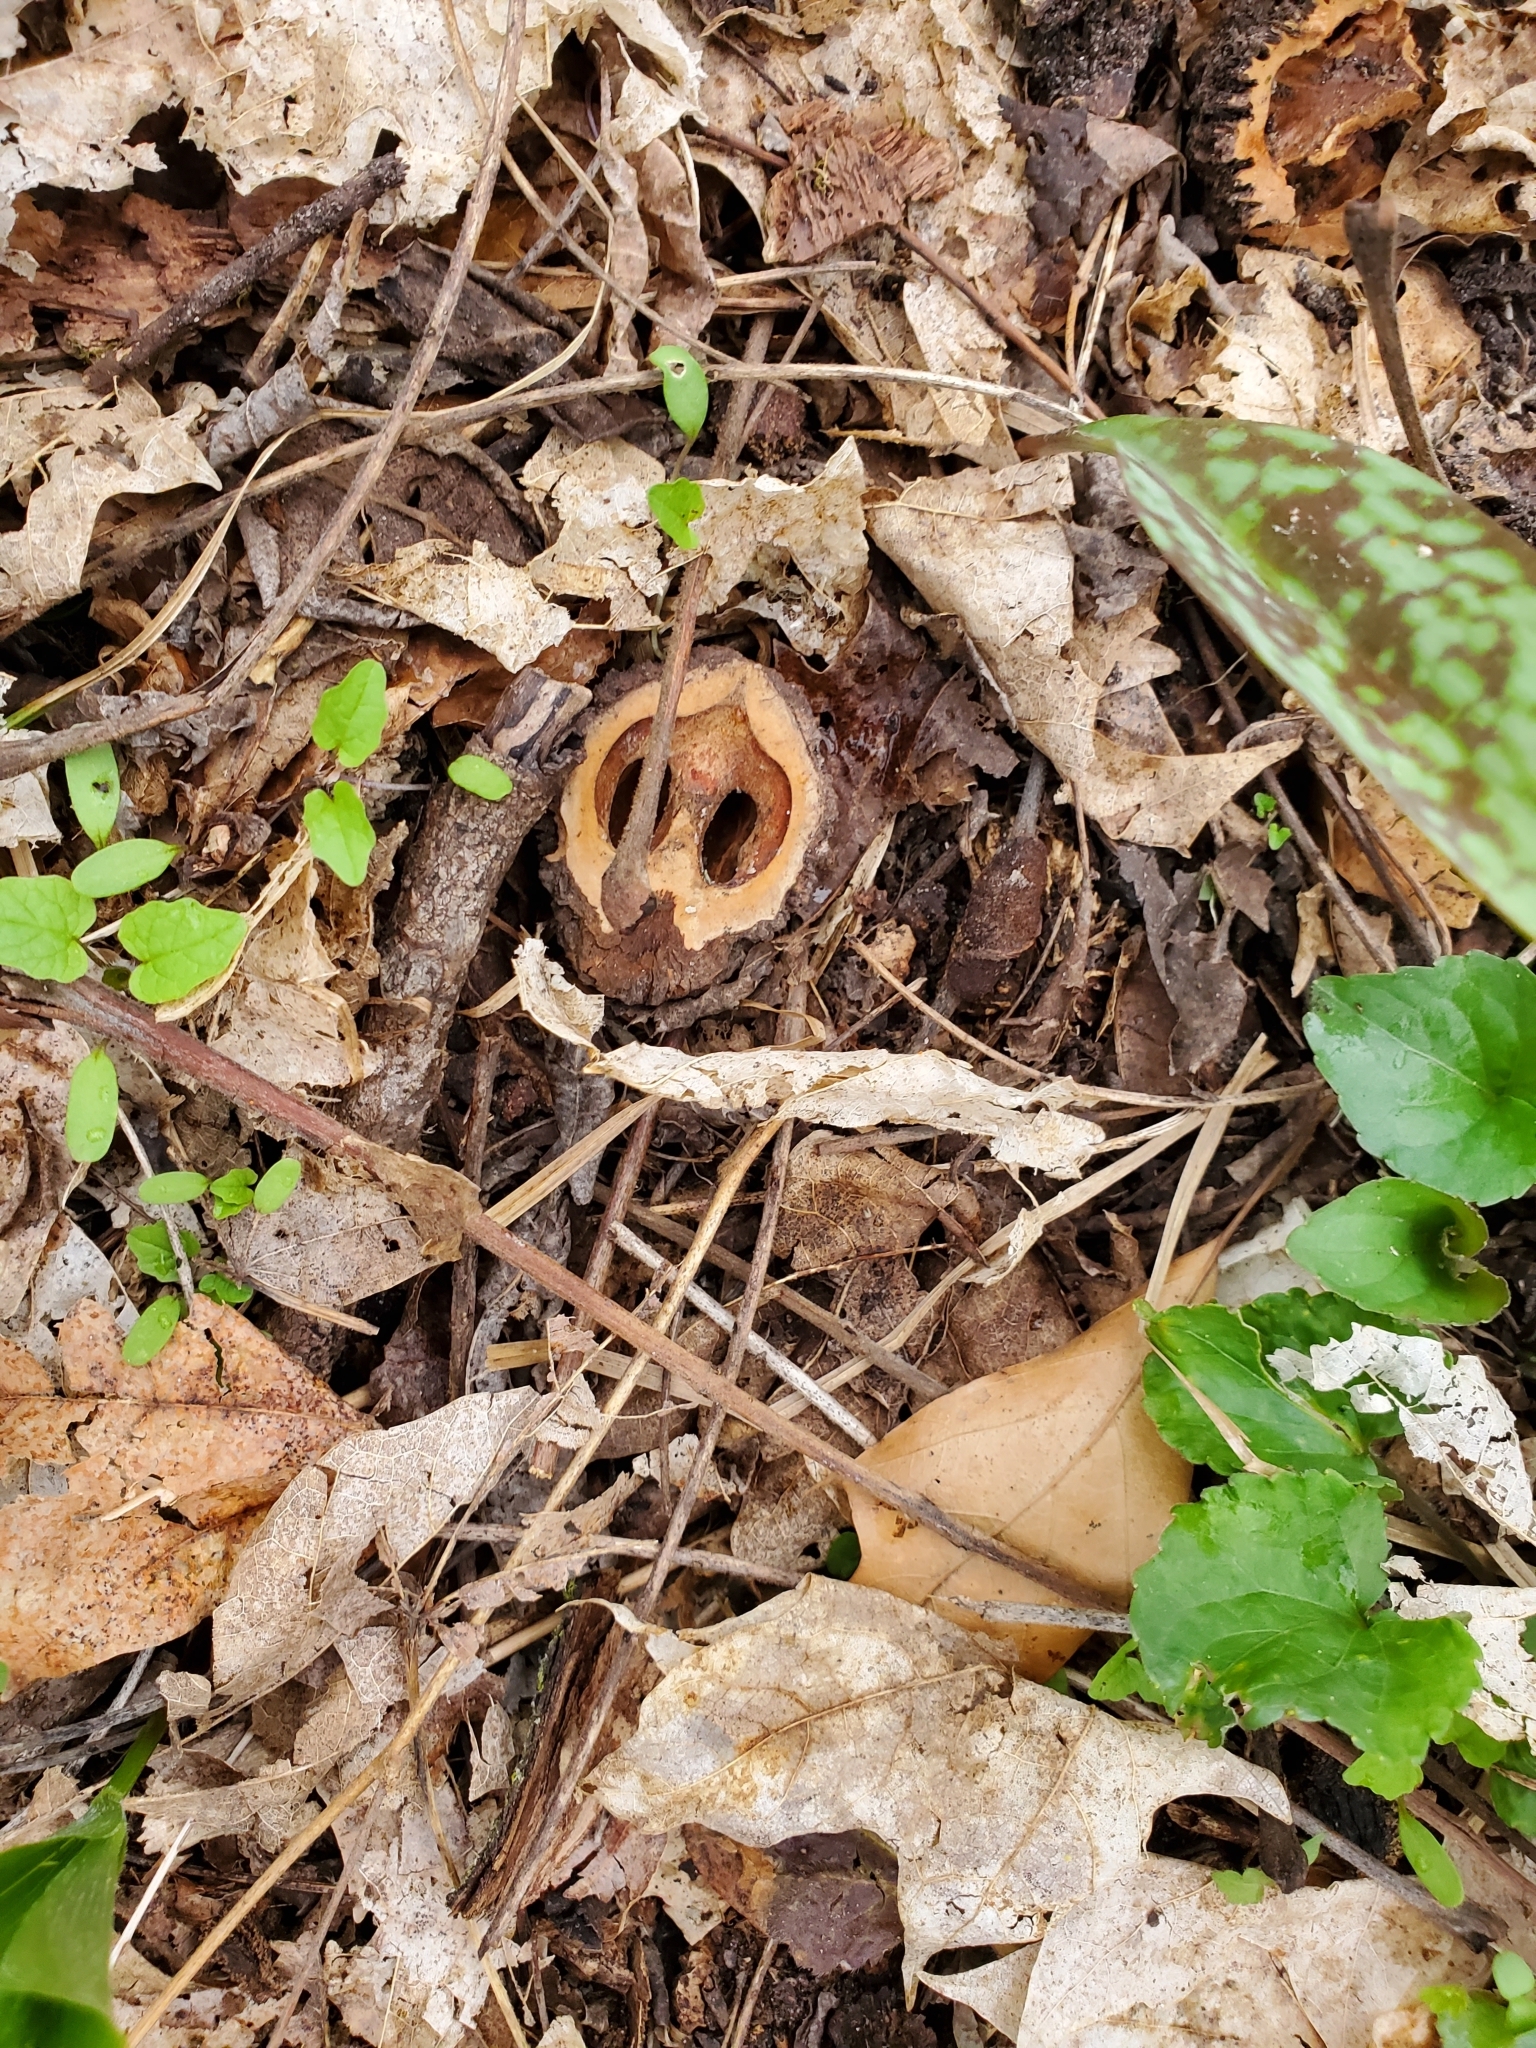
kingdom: Plantae
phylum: Tracheophyta
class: Magnoliopsida
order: Fagales
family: Juglandaceae
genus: Juglans
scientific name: Juglans nigra
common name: Black walnut
